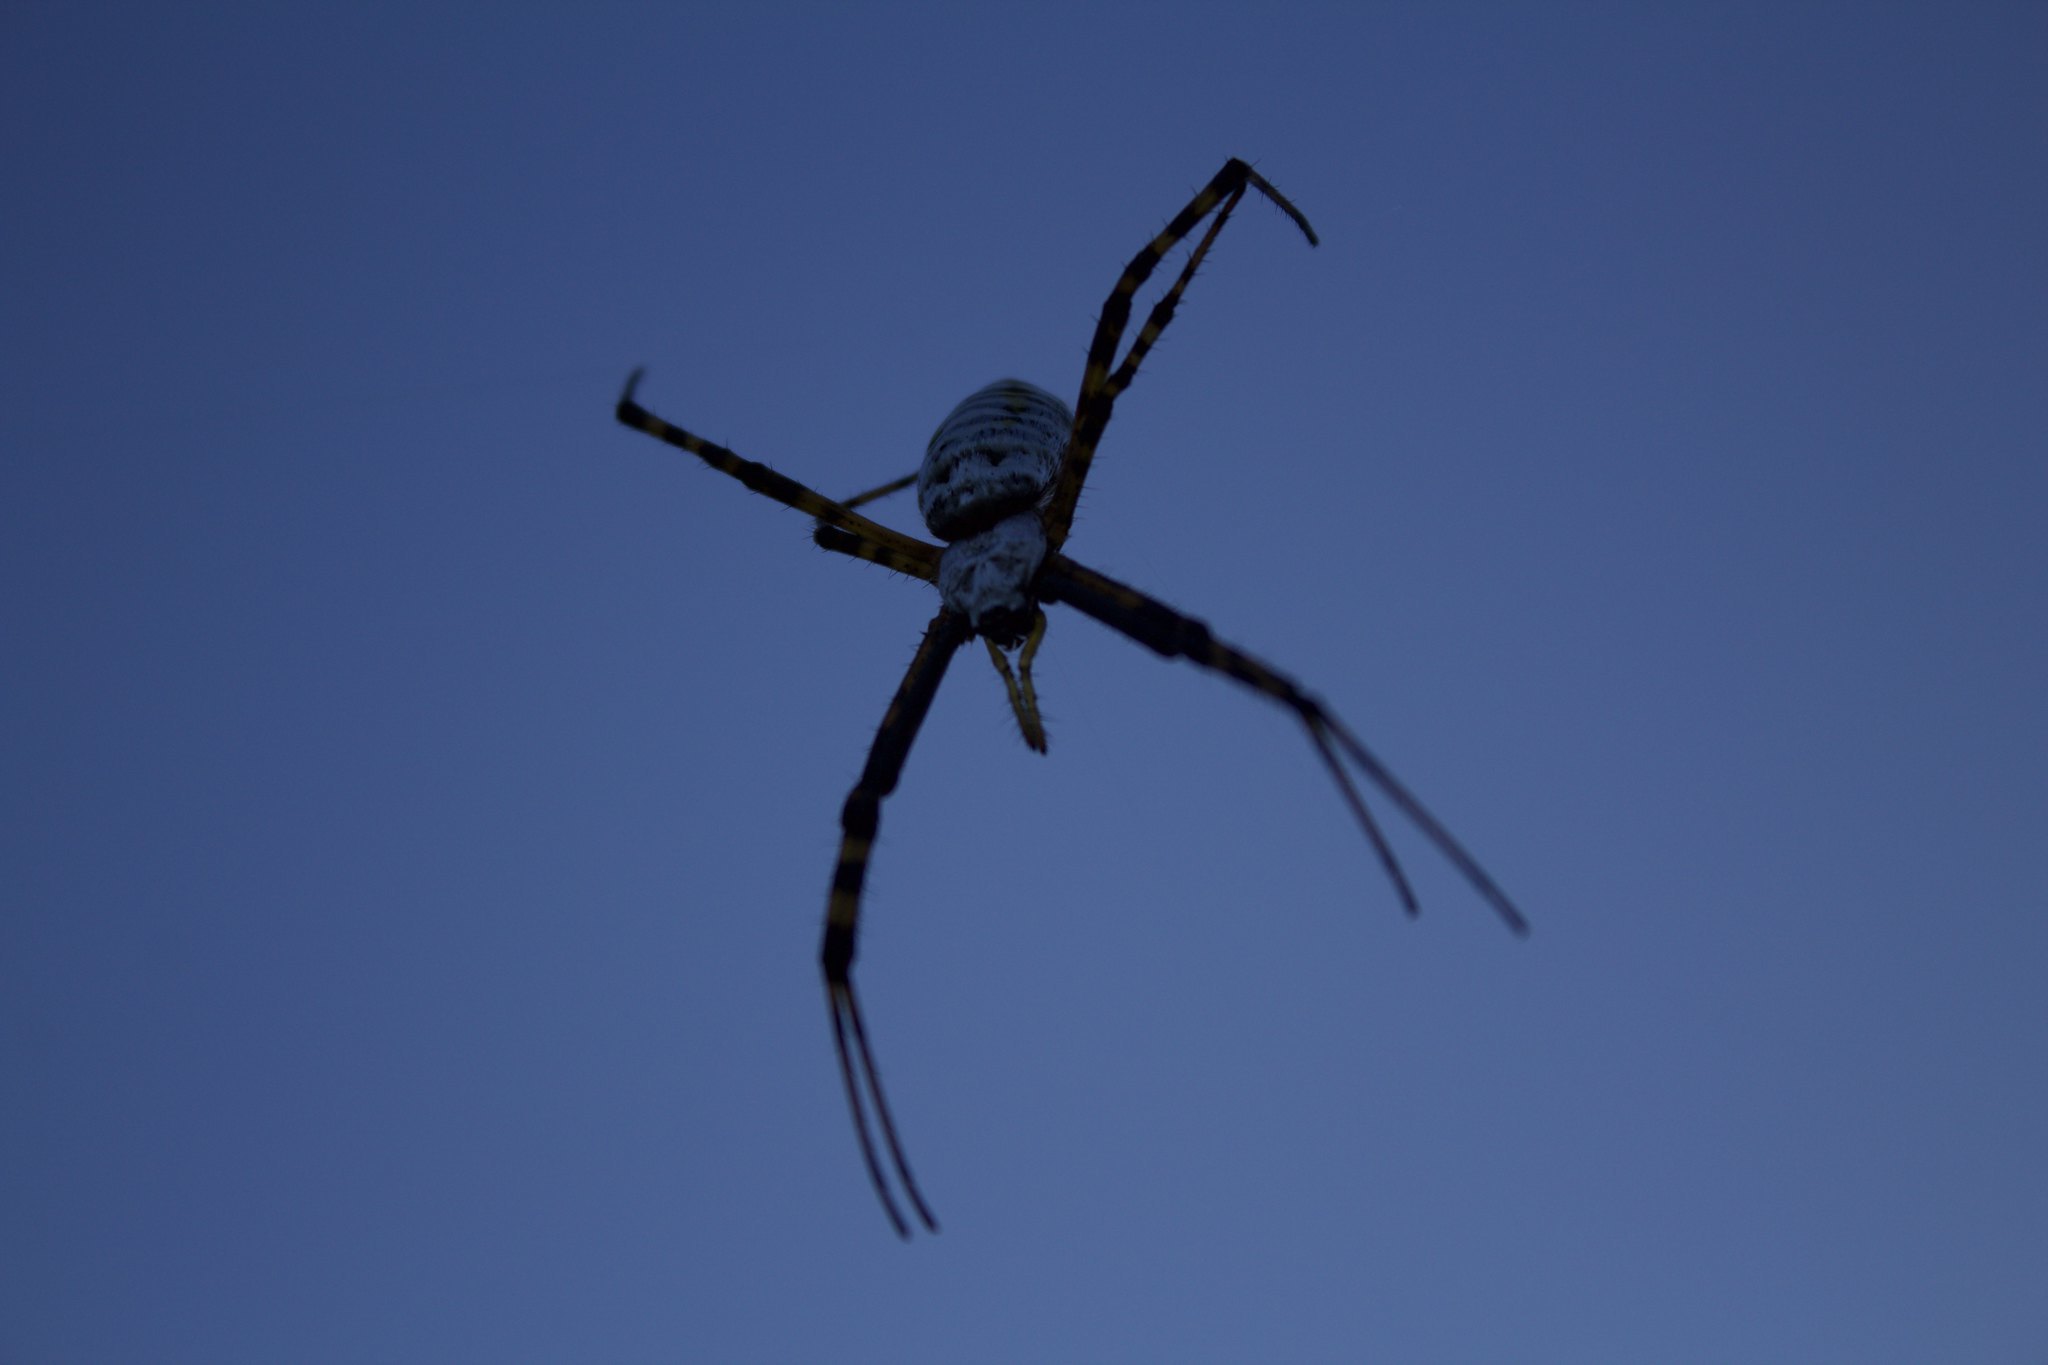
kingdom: Animalia
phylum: Arthropoda
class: Arachnida
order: Araneae
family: Araneidae
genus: Argiope
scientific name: Argiope trifasciata
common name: Banded garden spider
